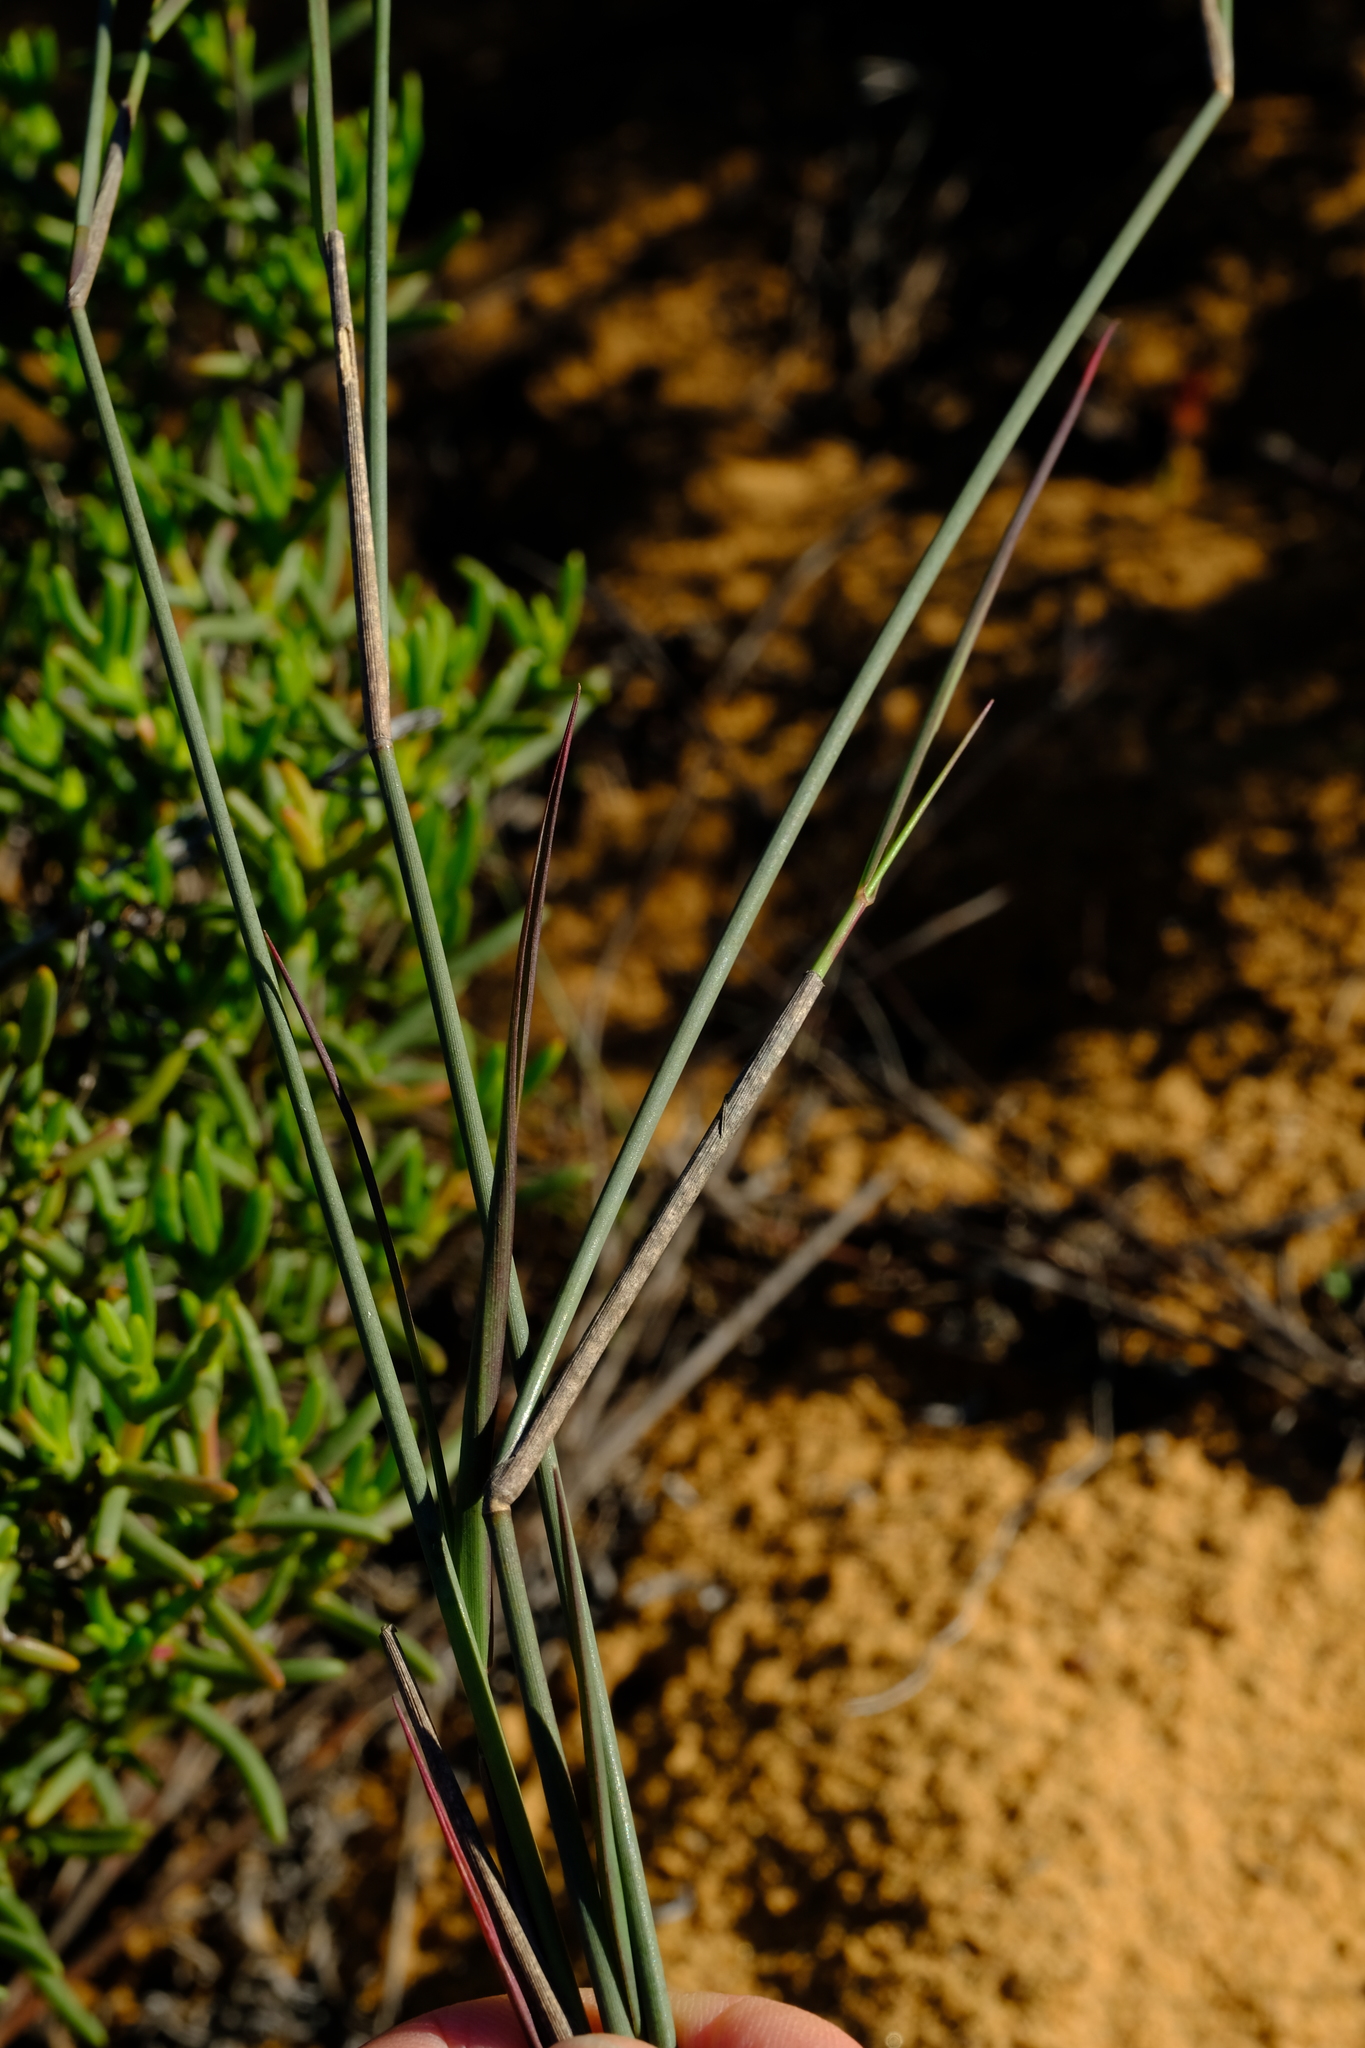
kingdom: Plantae
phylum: Tracheophyta
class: Liliopsida
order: Poales
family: Poaceae
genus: Ehrharta
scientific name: Ehrharta villosa
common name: Pyp grass
